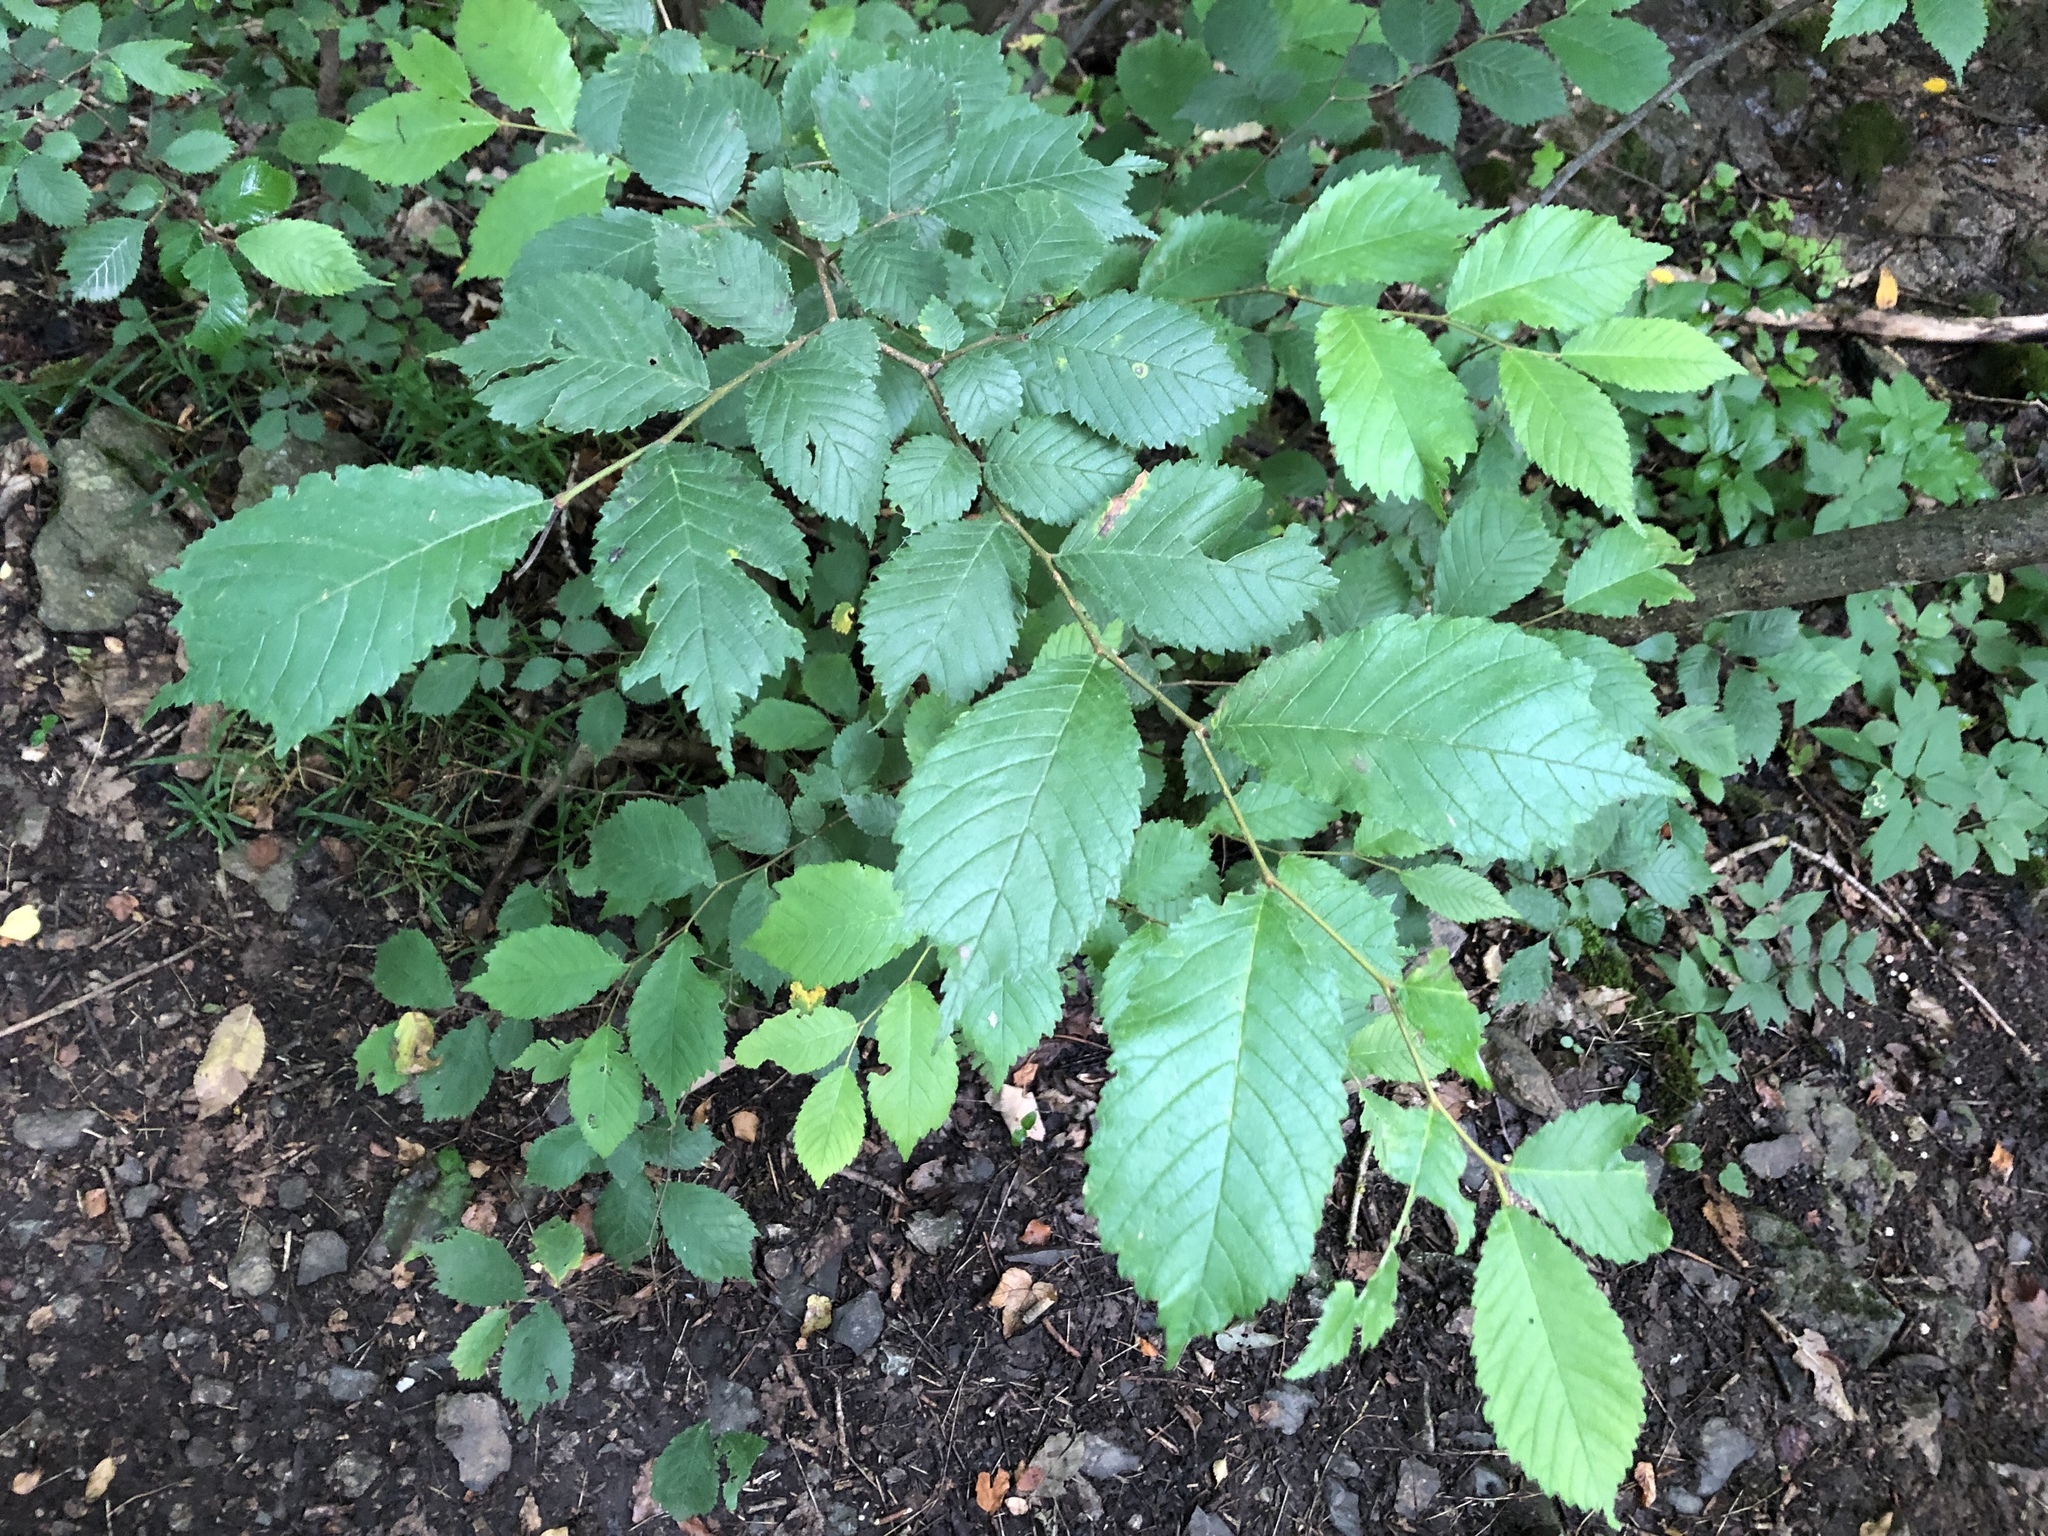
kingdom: Plantae
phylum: Tracheophyta
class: Magnoliopsida
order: Rosales
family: Ulmaceae
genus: Ulmus
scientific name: Ulmus glabra
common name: Wych elm
